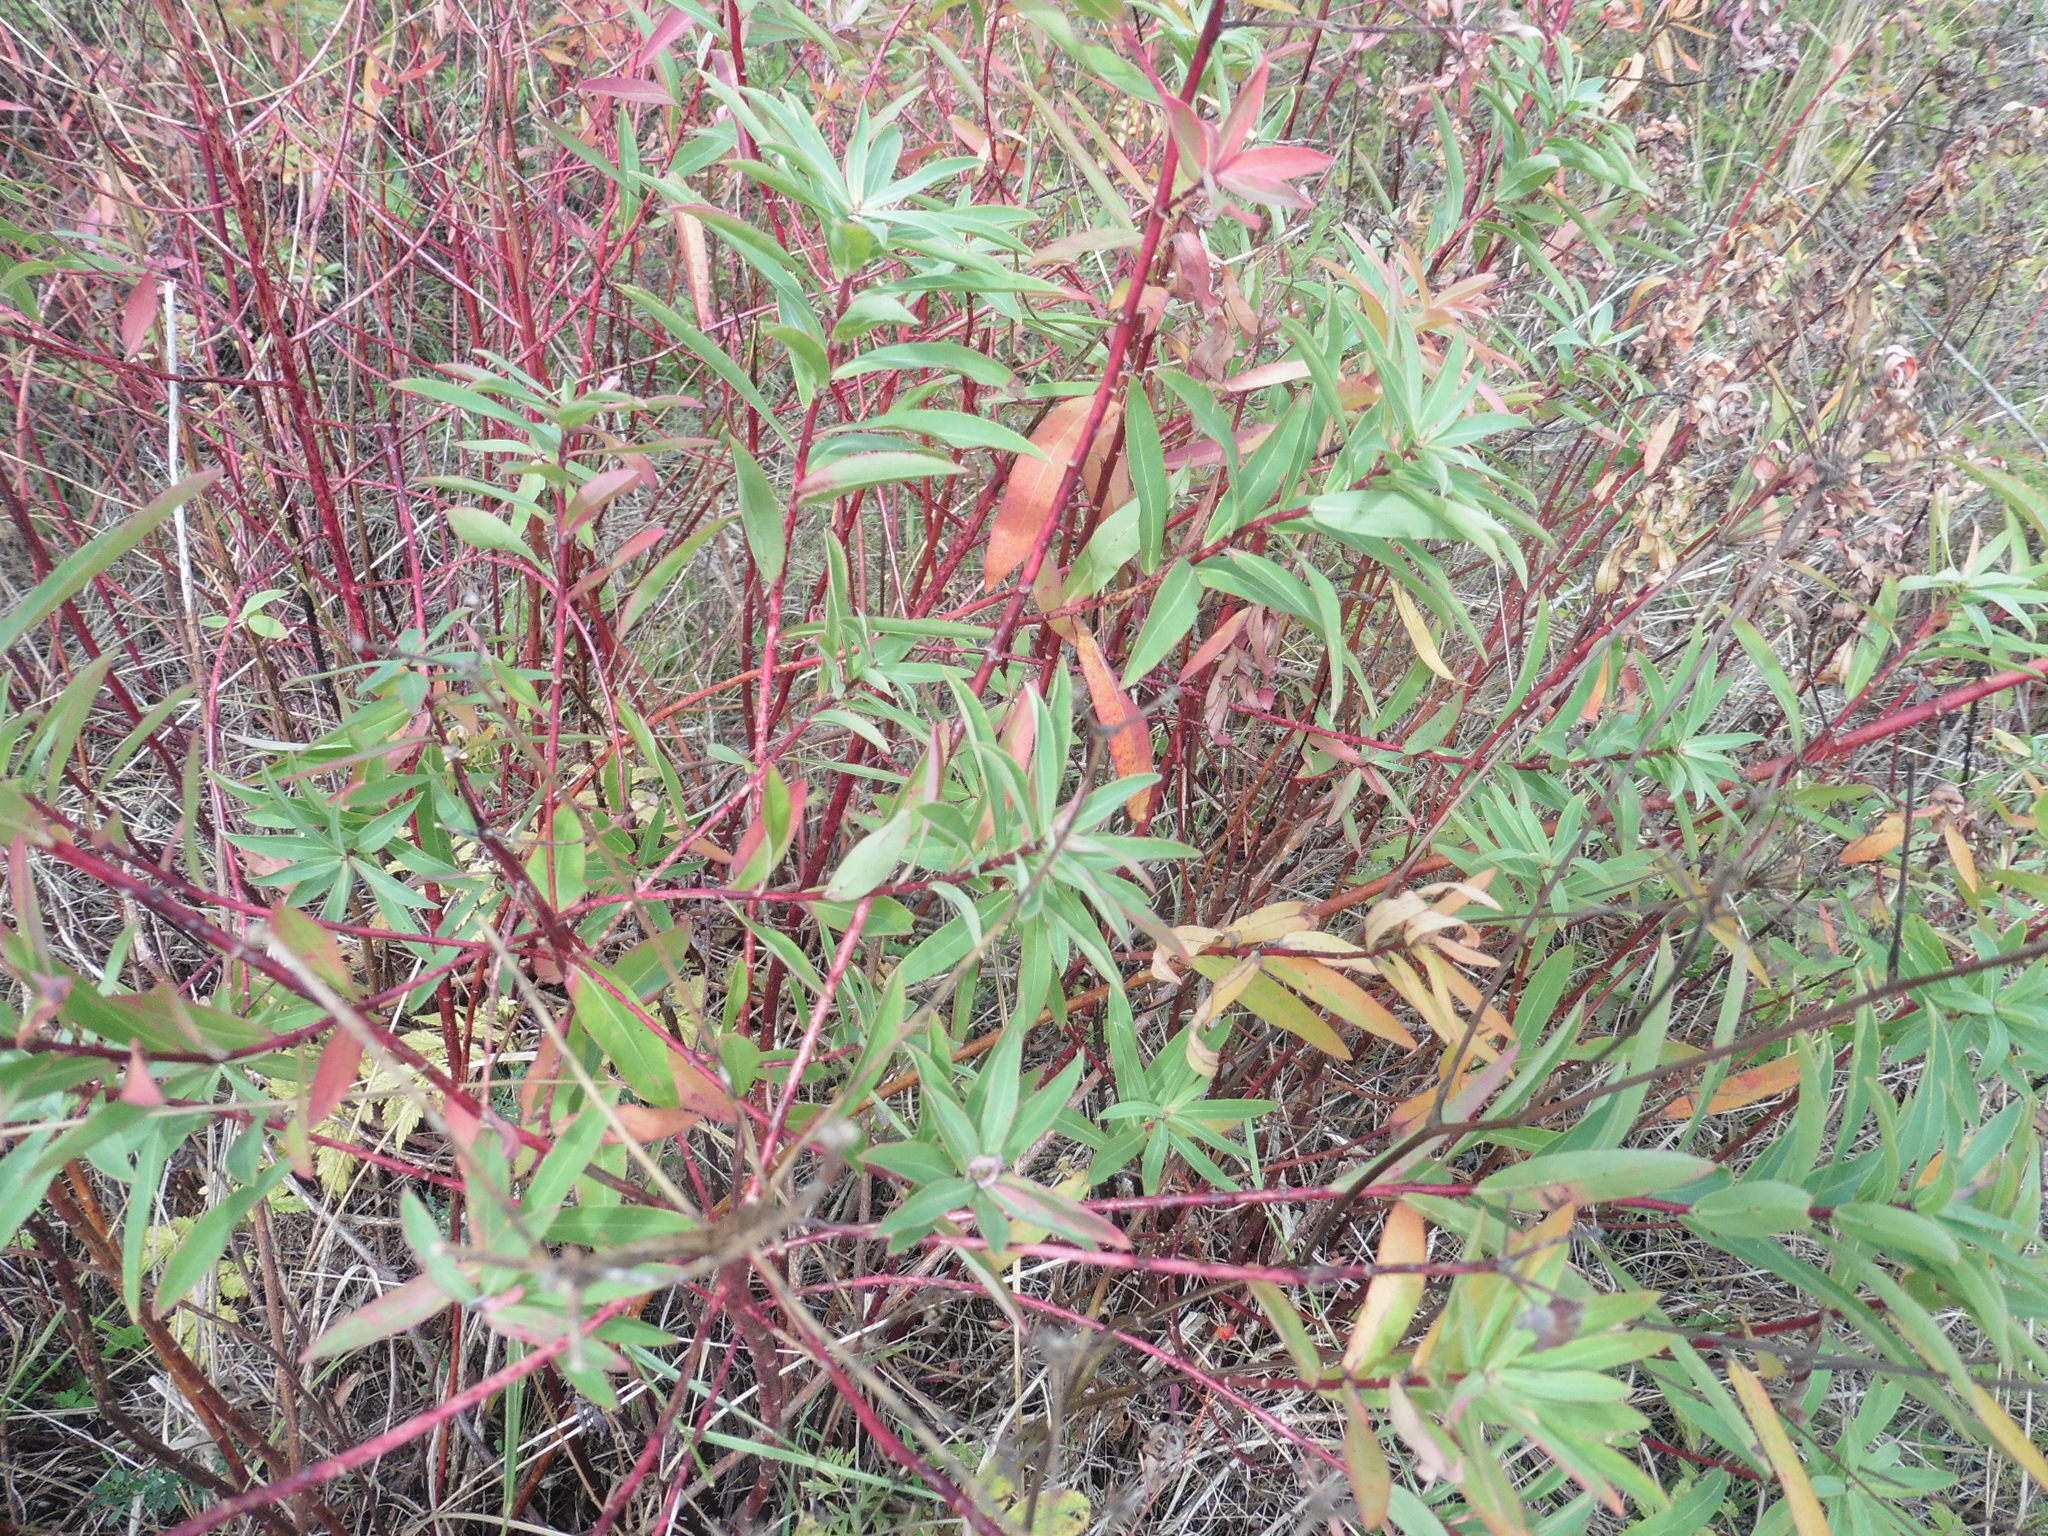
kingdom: Plantae
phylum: Tracheophyta
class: Magnoliopsida
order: Malpighiales
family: Euphorbiaceae
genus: Euphorbia
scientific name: Euphorbia semivillosa
